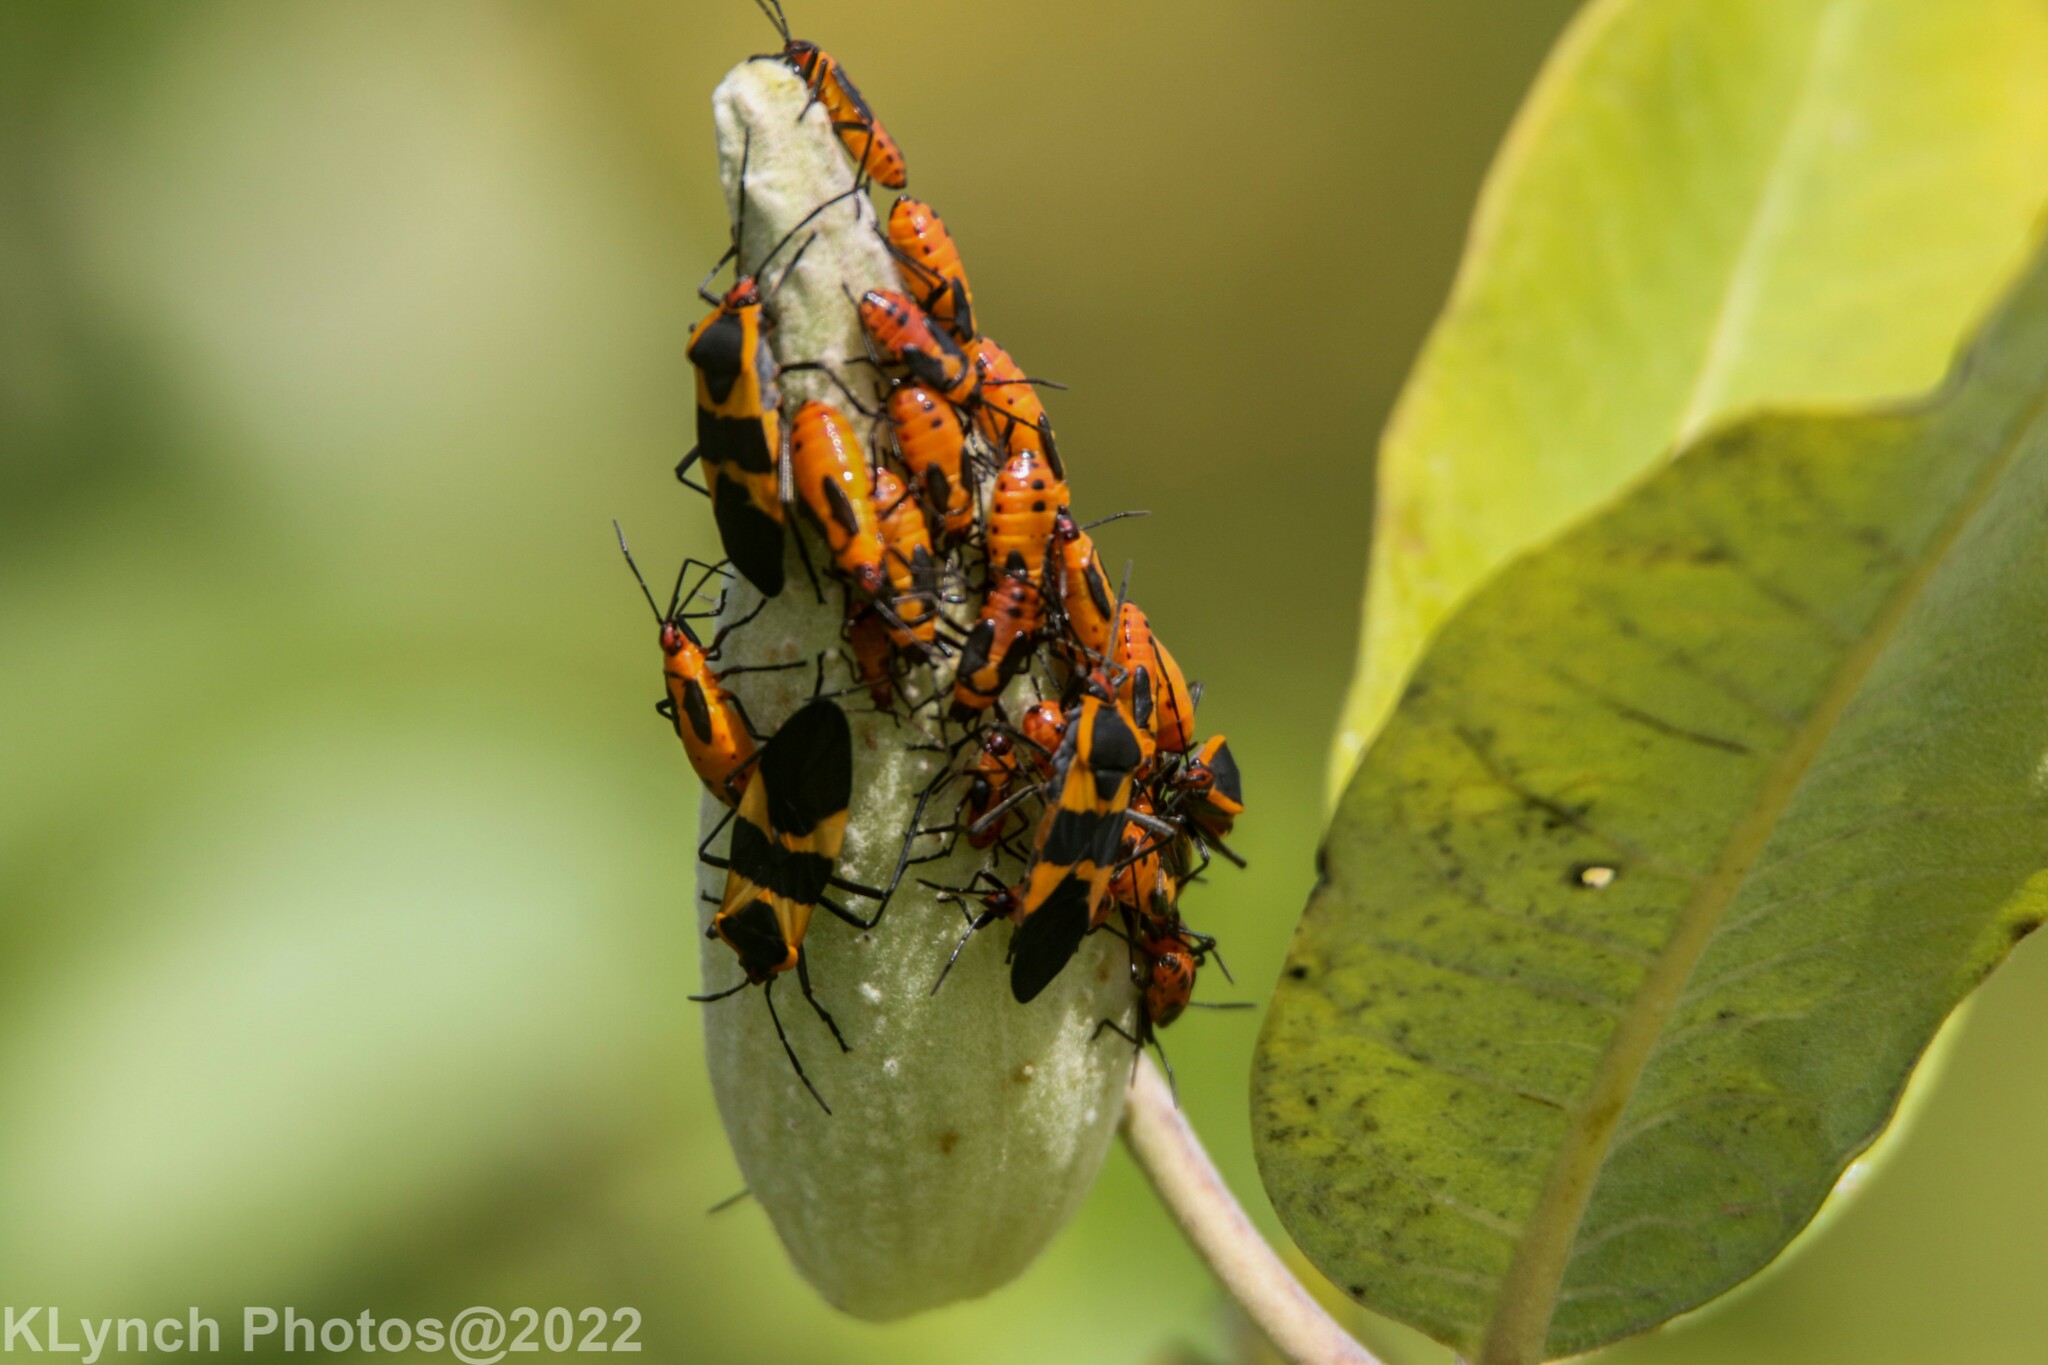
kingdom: Animalia
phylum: Arthropoda
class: Insecta
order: Hemiptera
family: Lygaeidae
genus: Oncopeltus
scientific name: Oncopeltus fasciatus
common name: Large milkweed bug
